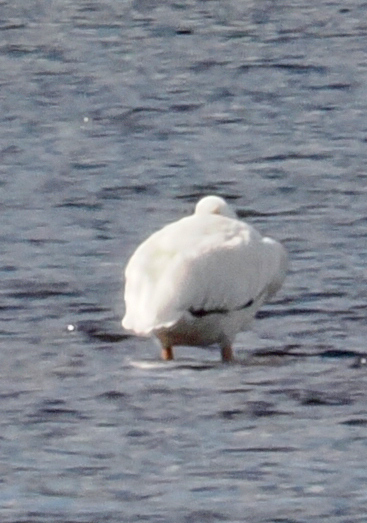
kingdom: Animalia
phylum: Chordata
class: Aves
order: Pelecaniformes
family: Pelecanidae
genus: Pelecanus
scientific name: Pelecanus erythrorhynchos
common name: American white pelican
